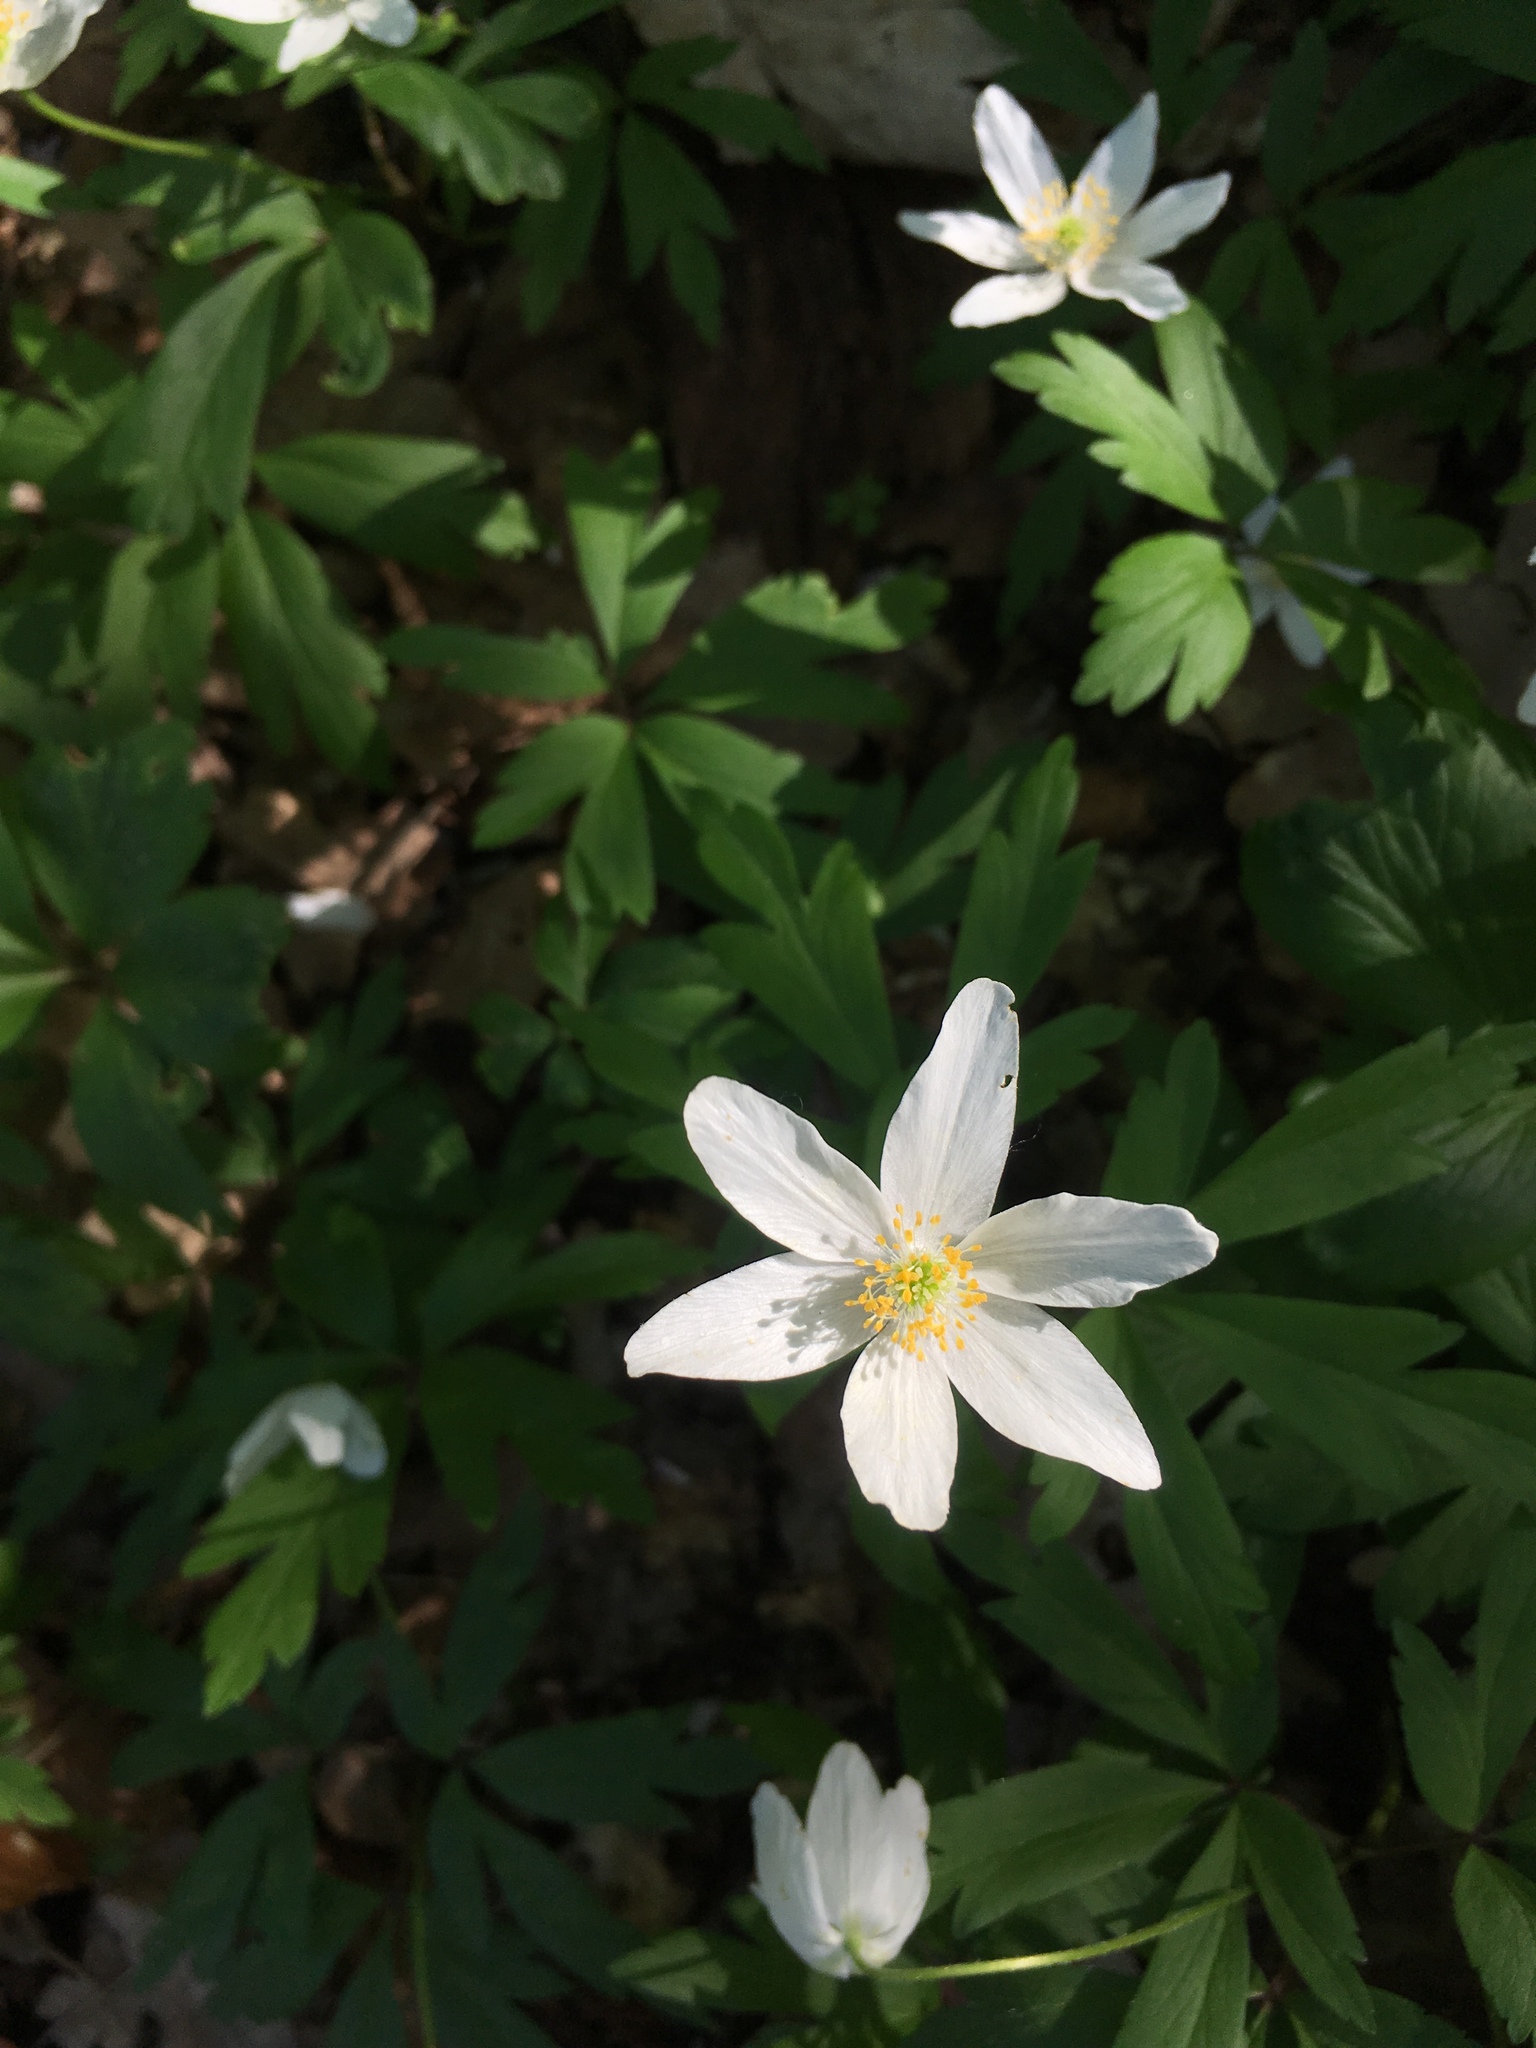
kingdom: Plantae
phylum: Tracheophyta
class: Magnoliopsida
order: Ranunculales
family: Ranunculaceae
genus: Anemone
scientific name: Anemone nemorosa
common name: Wood anemone
